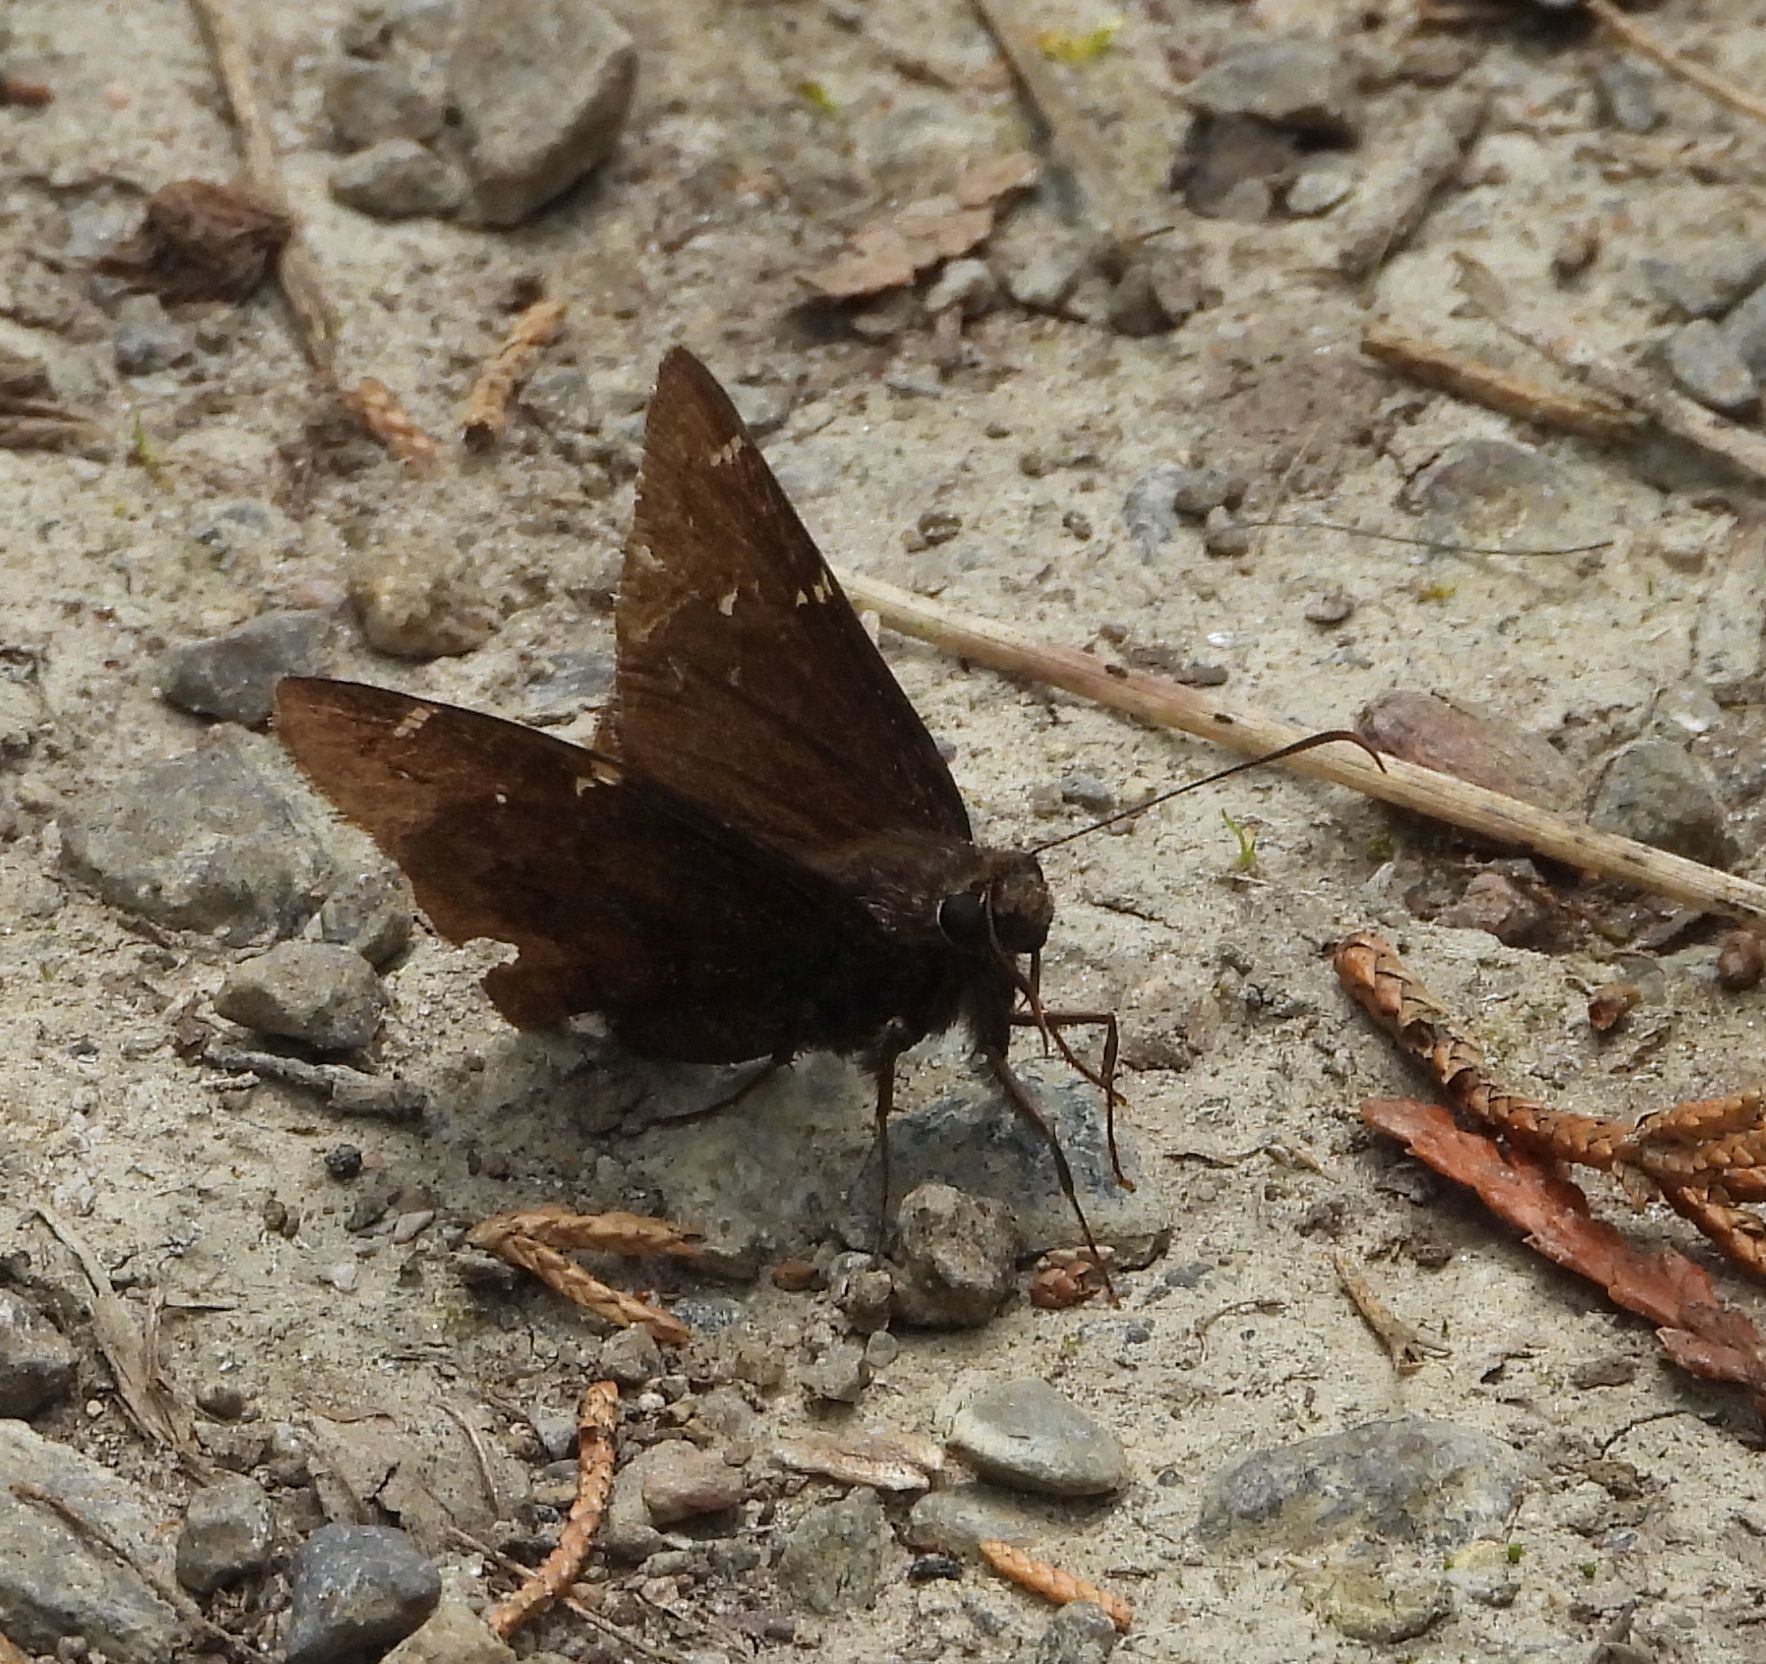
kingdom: Animalia
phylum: Arthropoda
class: Insecta
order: Lepidoptera
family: Hesperiidae
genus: Thorybes
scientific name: Thorybes pylades
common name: Northern cloudywing
